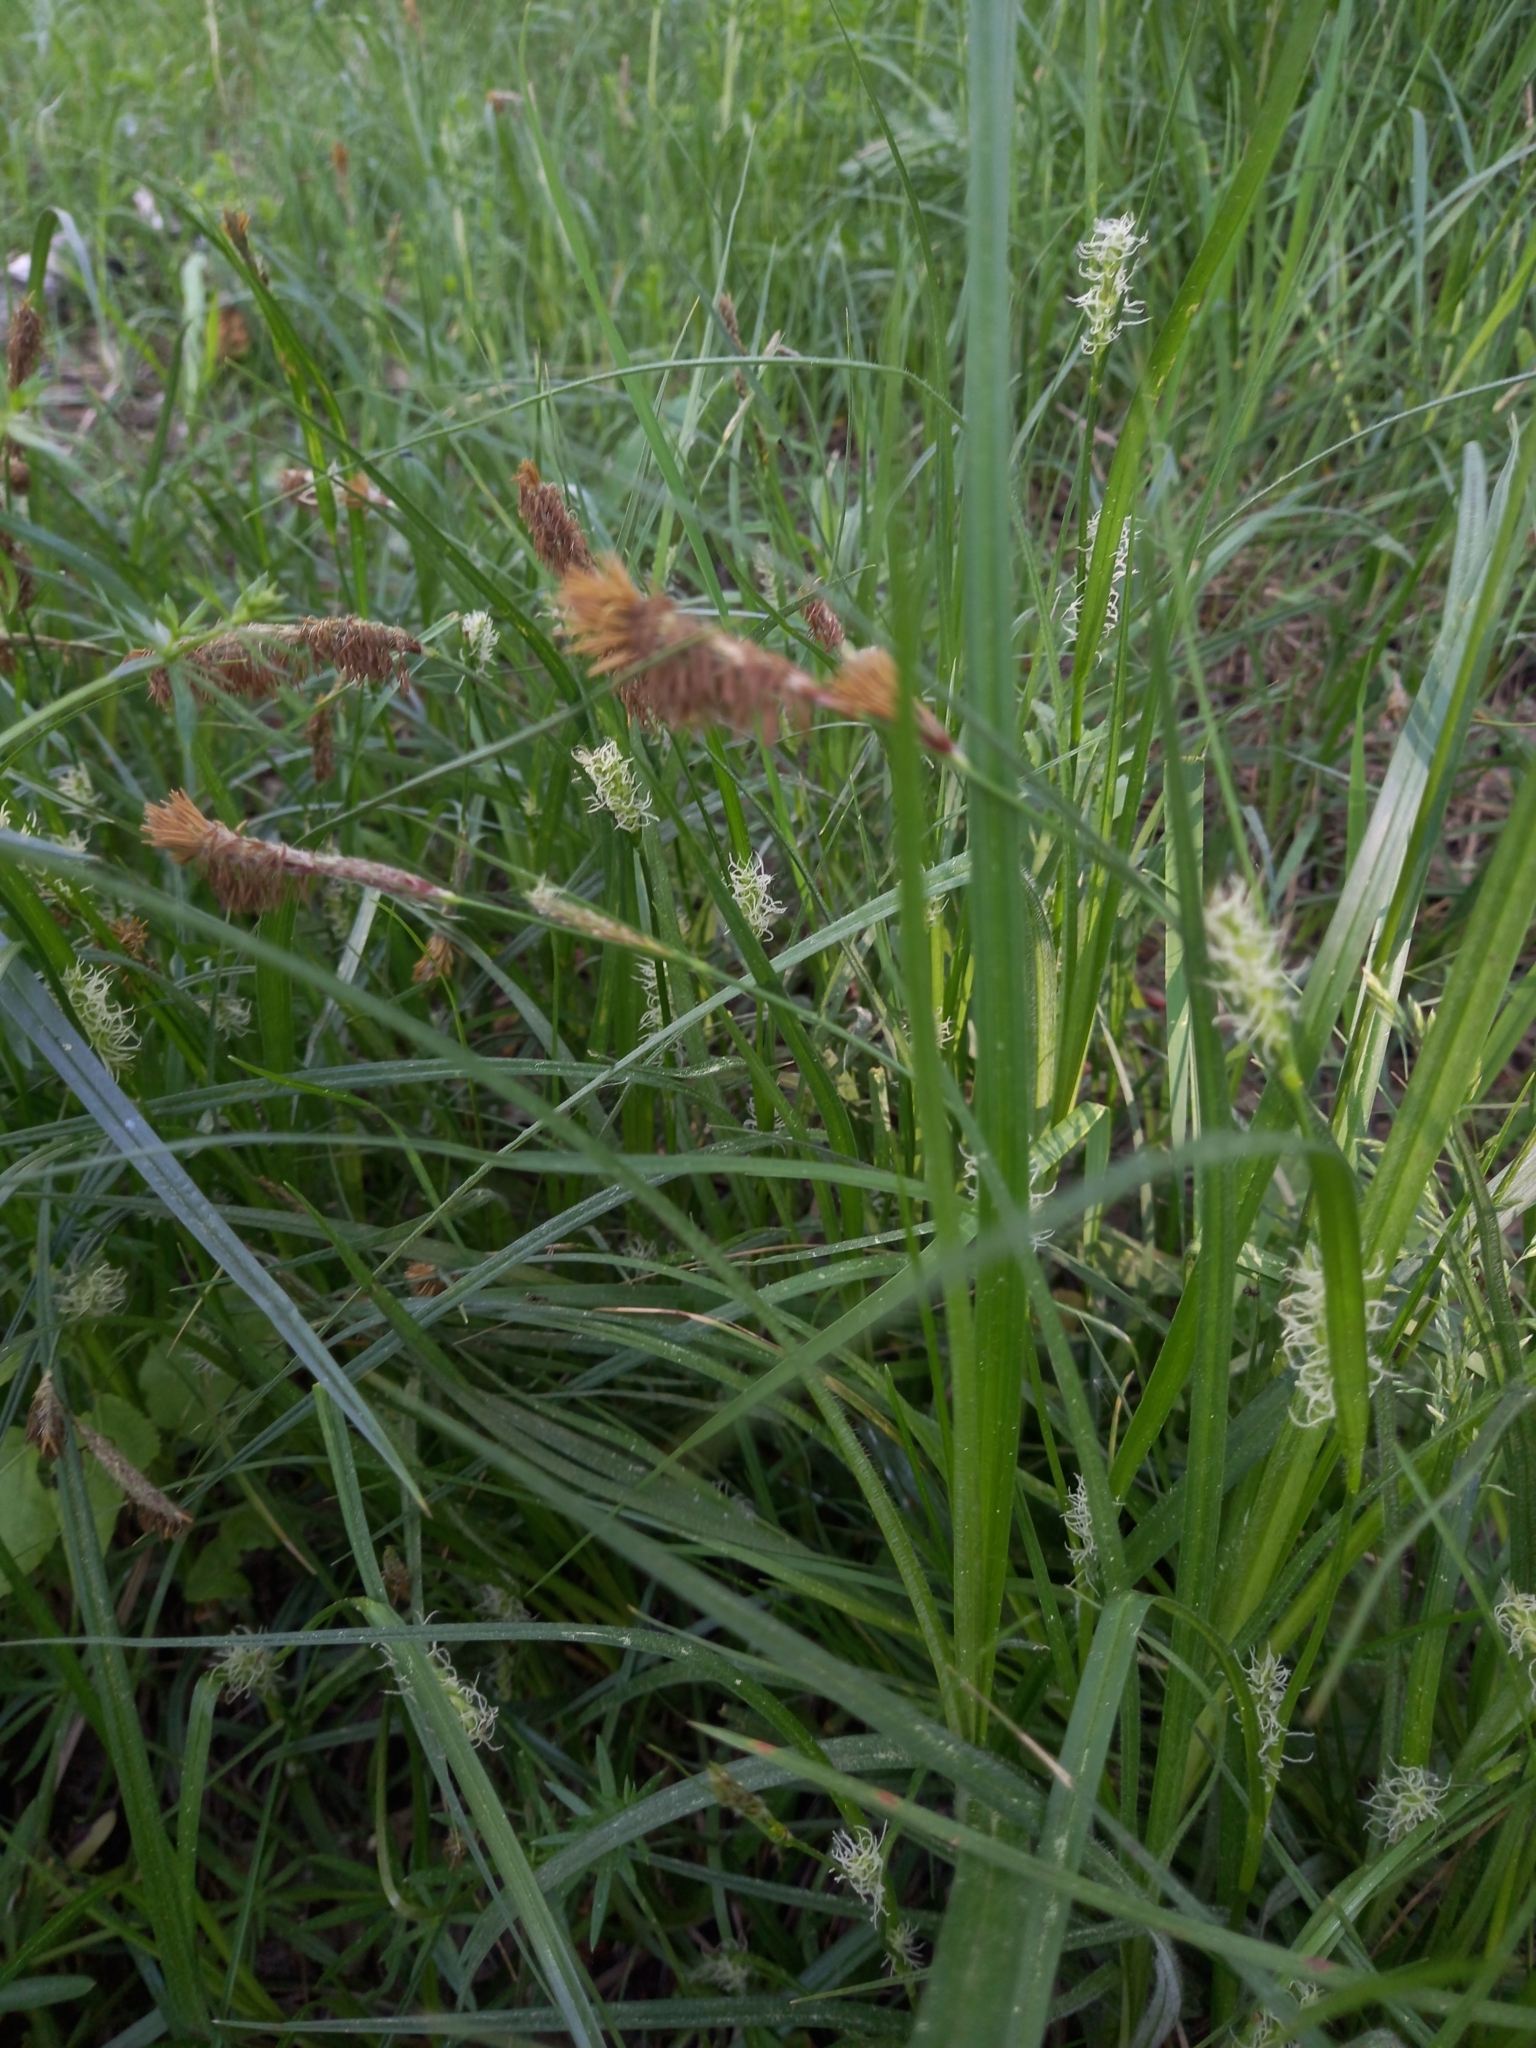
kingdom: Plantae
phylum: Tracheophyta
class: Liliopsida
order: Poales
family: Cyperaceae
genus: Carex
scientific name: Carex hirta
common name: Hairy sedge
